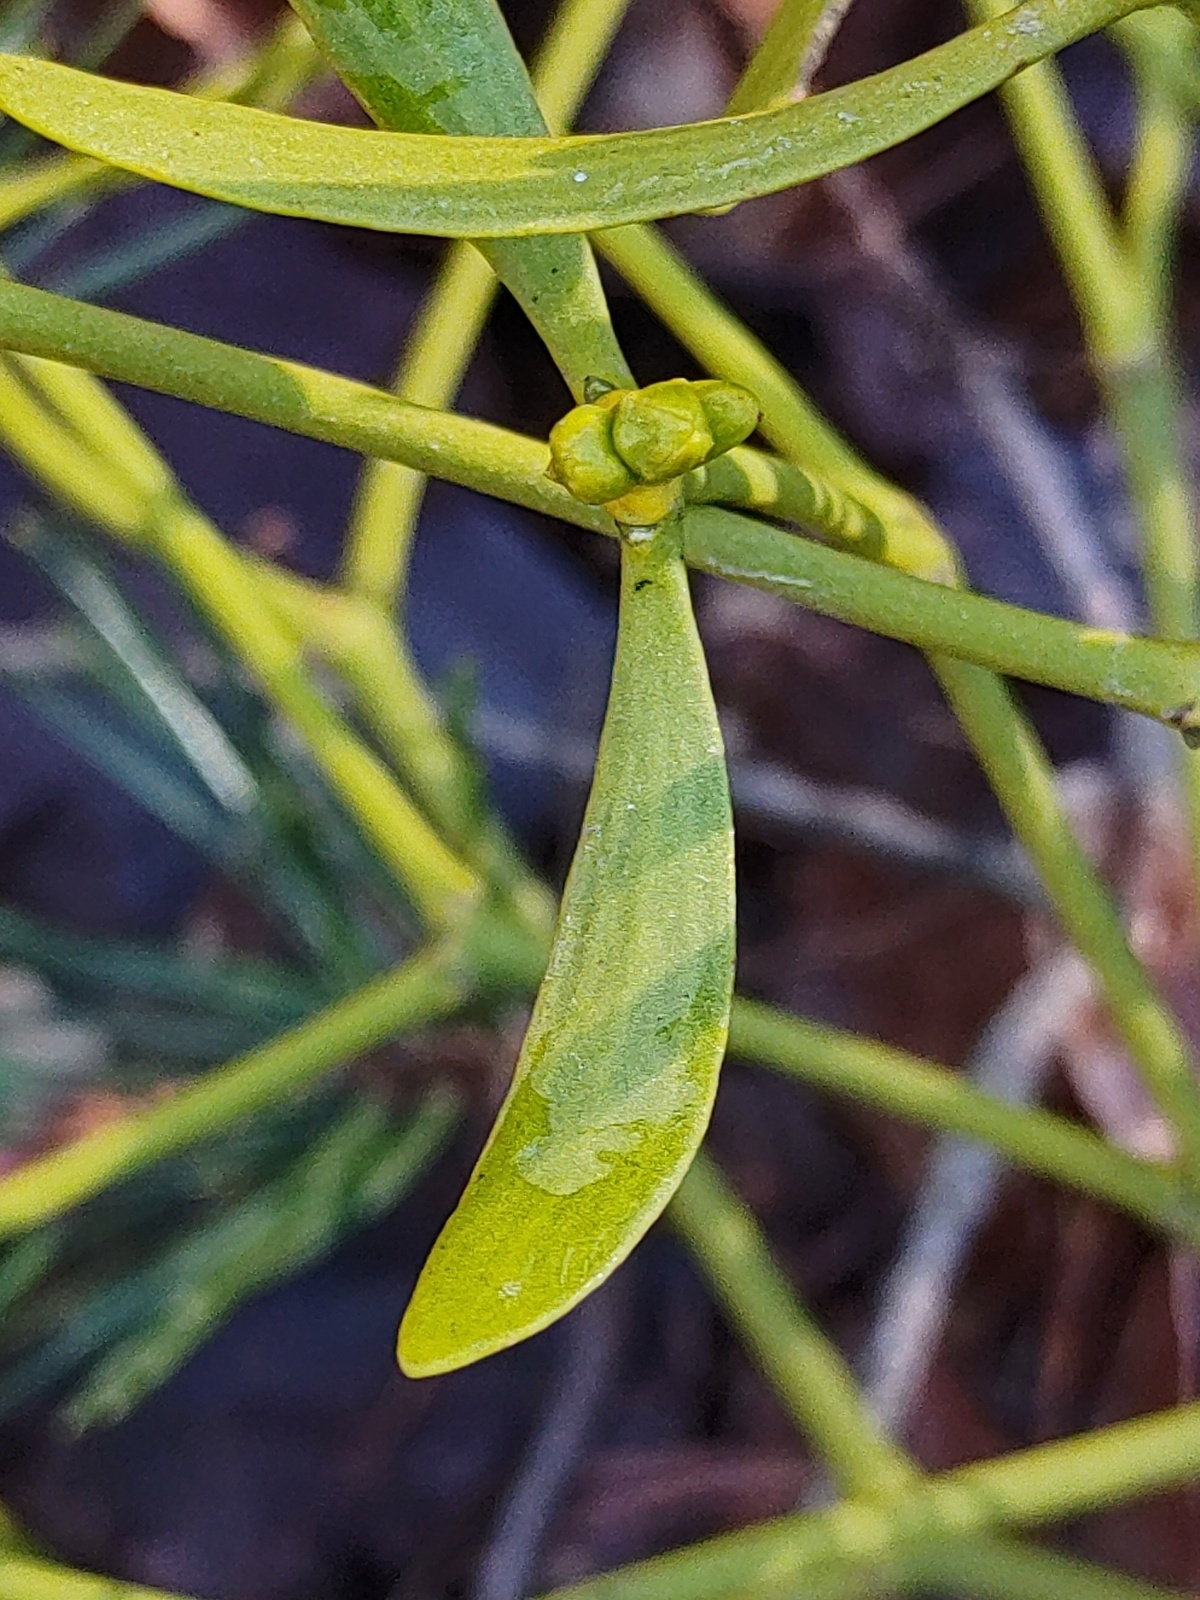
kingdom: Plantae
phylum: Tracheophyta
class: Magnoliopsida
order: Santalales
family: Viscaceae
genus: Viscum
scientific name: Viscum laxum
